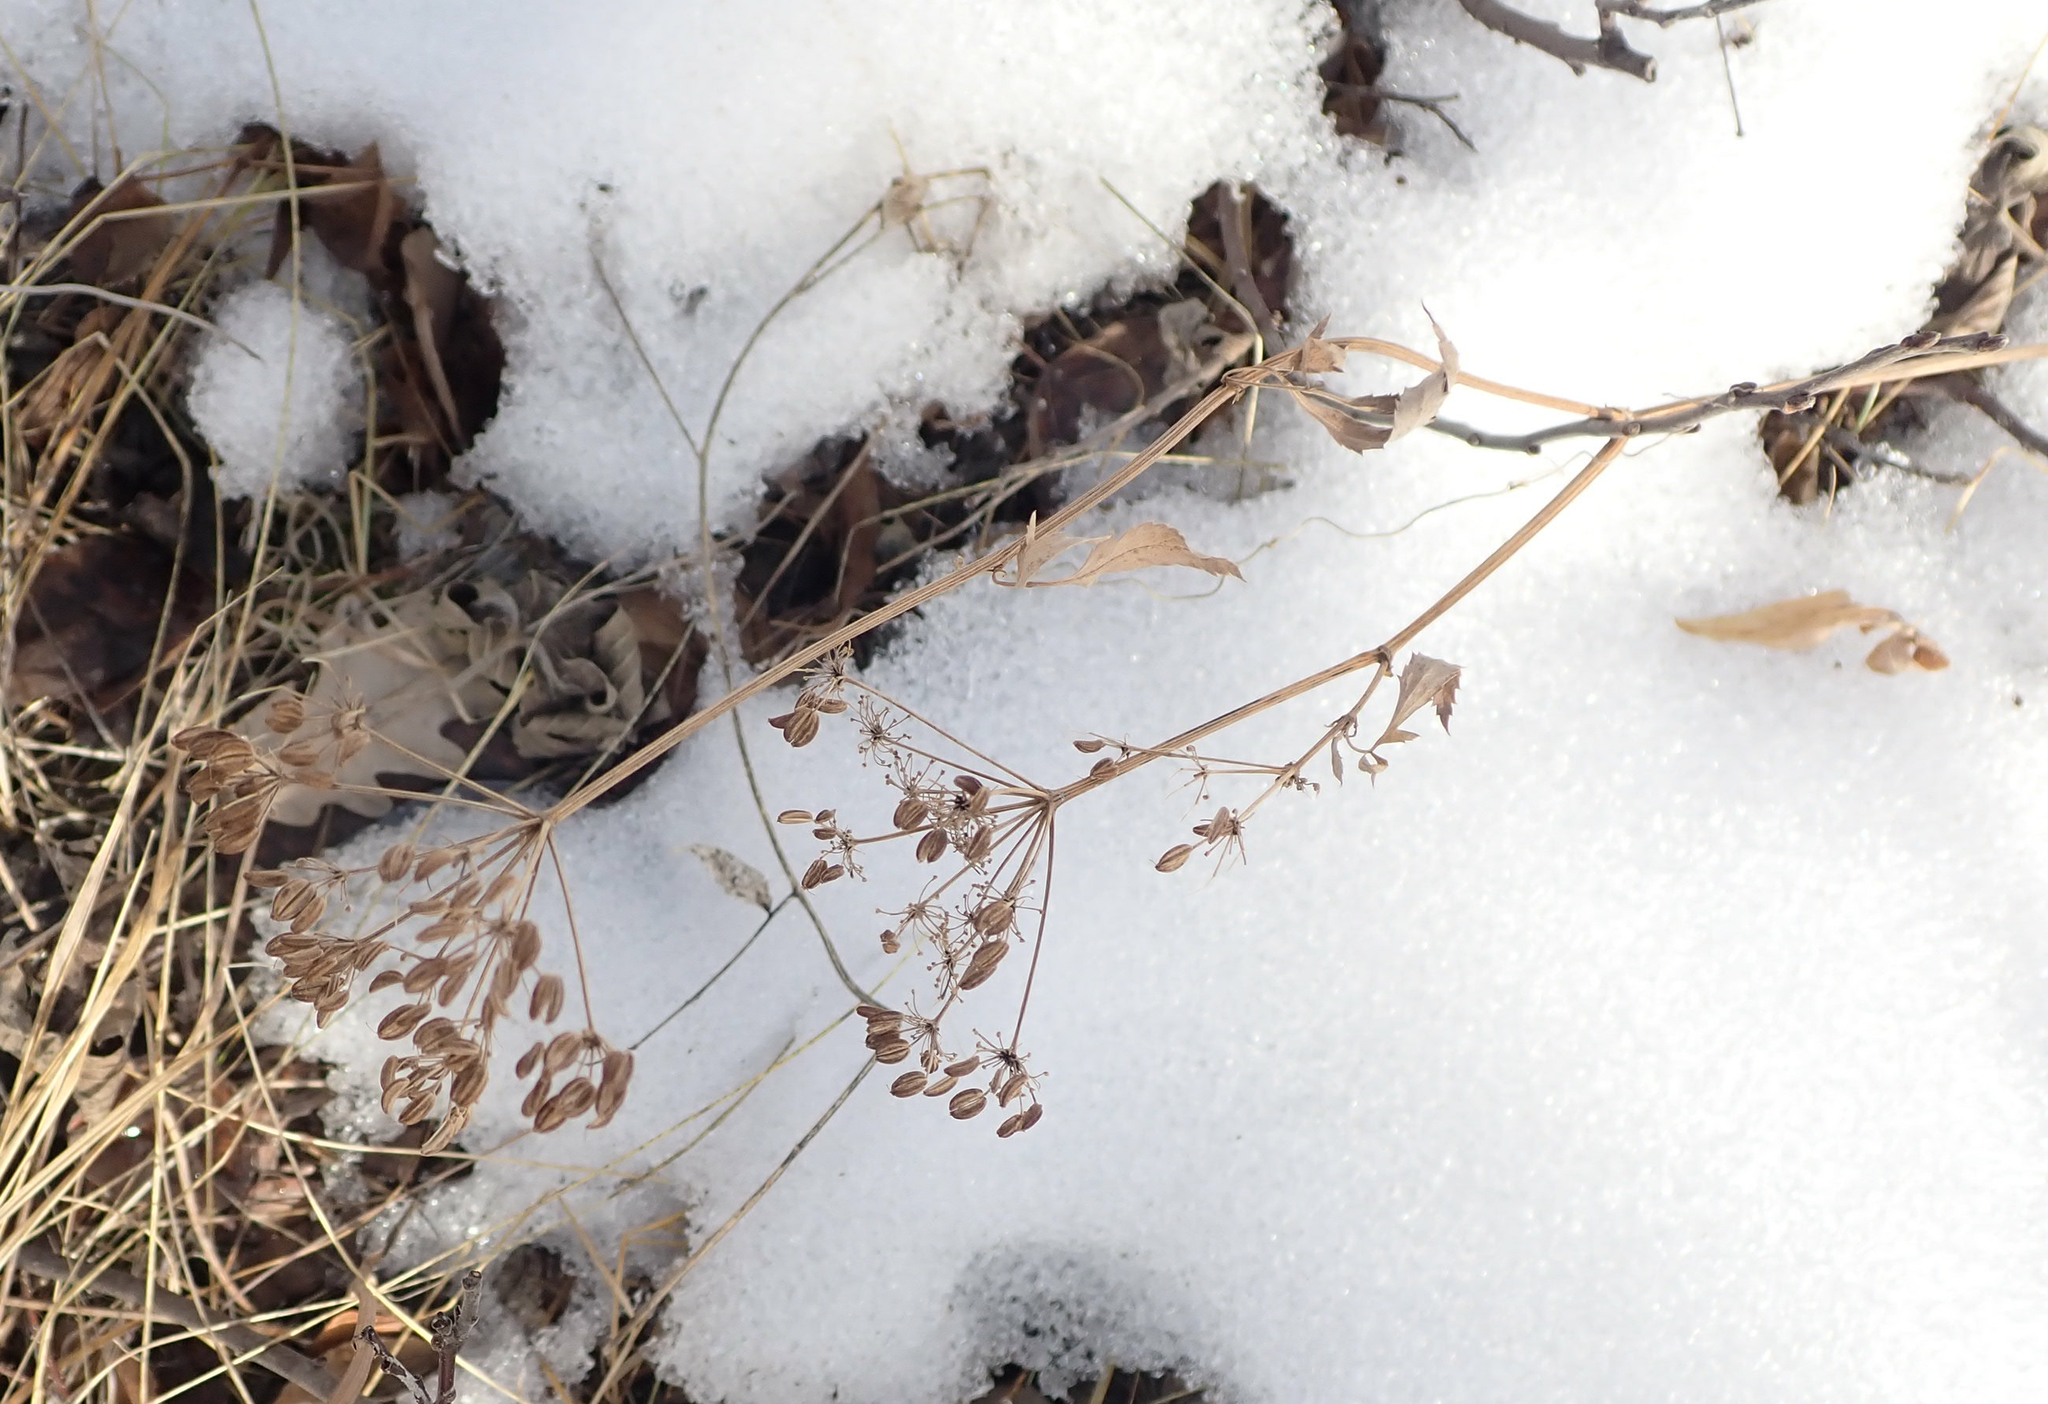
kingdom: Plantae
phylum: Tracheophyta
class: Magnoliopsida
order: Apiales
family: Apiaceae
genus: Zizia
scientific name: Zizia aurea
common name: Golden alexanders
